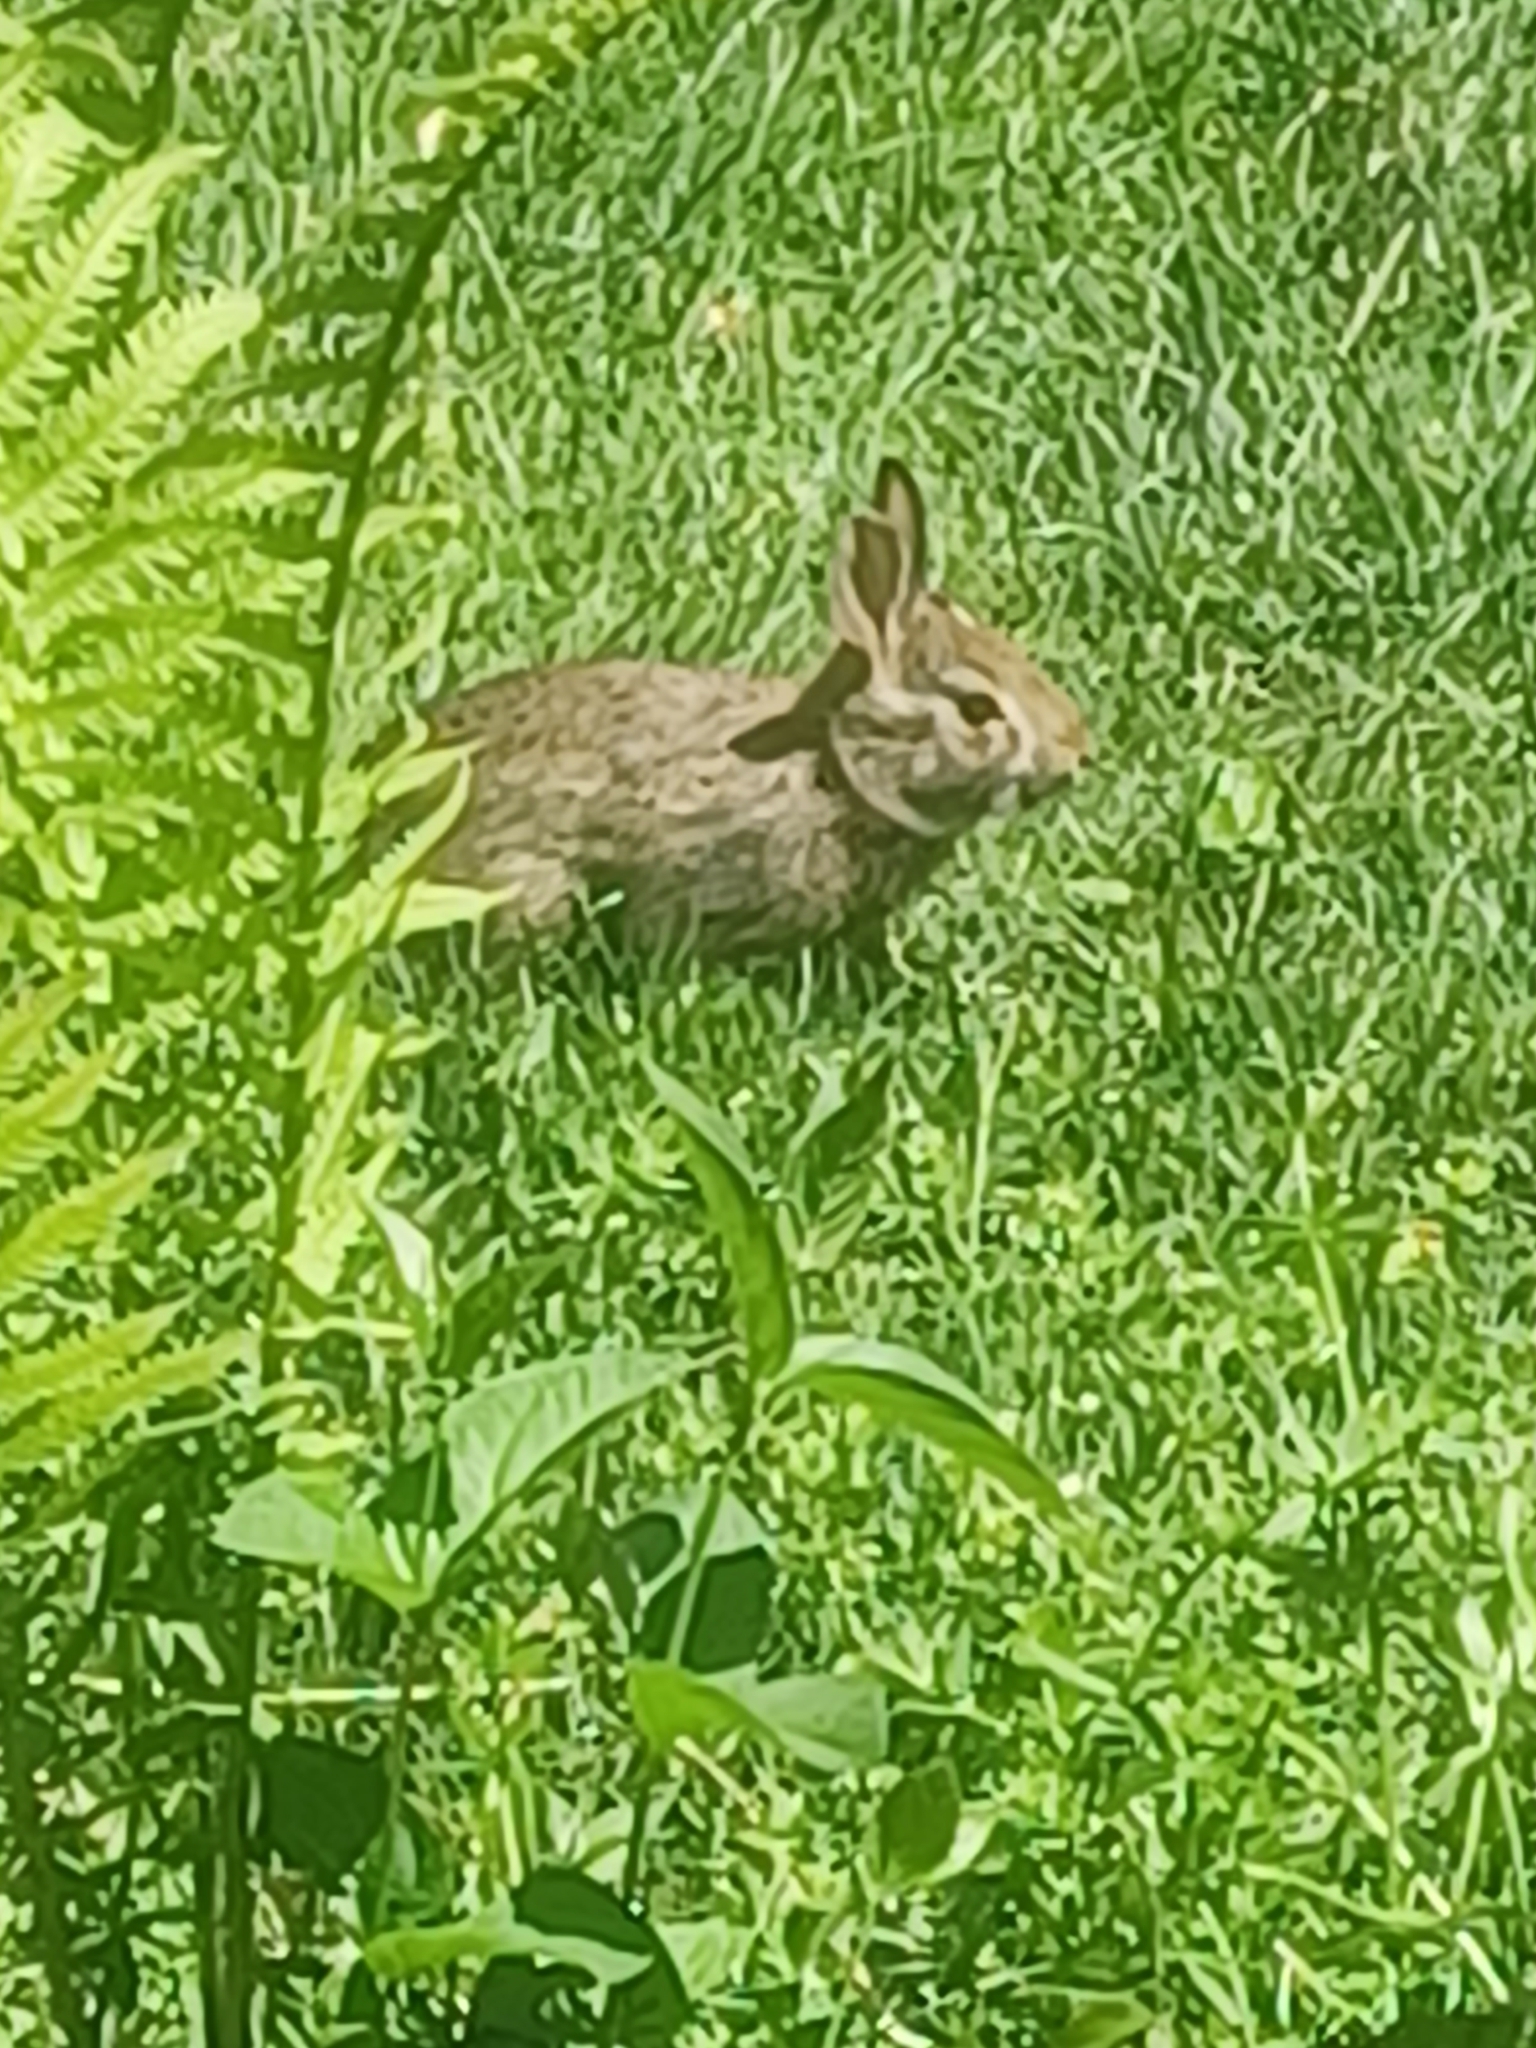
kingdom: Animalia
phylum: Chordata
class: Mammalia
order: Lagomorpha
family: Leporidae
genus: Sylvilagus
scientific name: Sylvilagus floridanus
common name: Eastern cottontail
